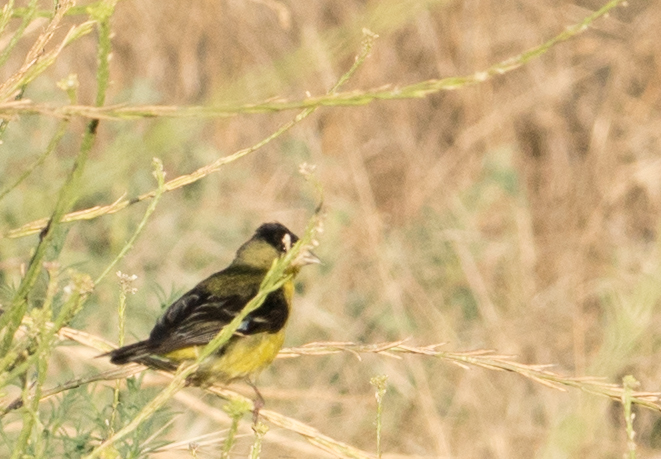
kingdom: Animalia
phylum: Chordata
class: Aves
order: Passeriformes
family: Fringillidae
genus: Spinus
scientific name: Spinus psaltria
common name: Lesser goldfinch
